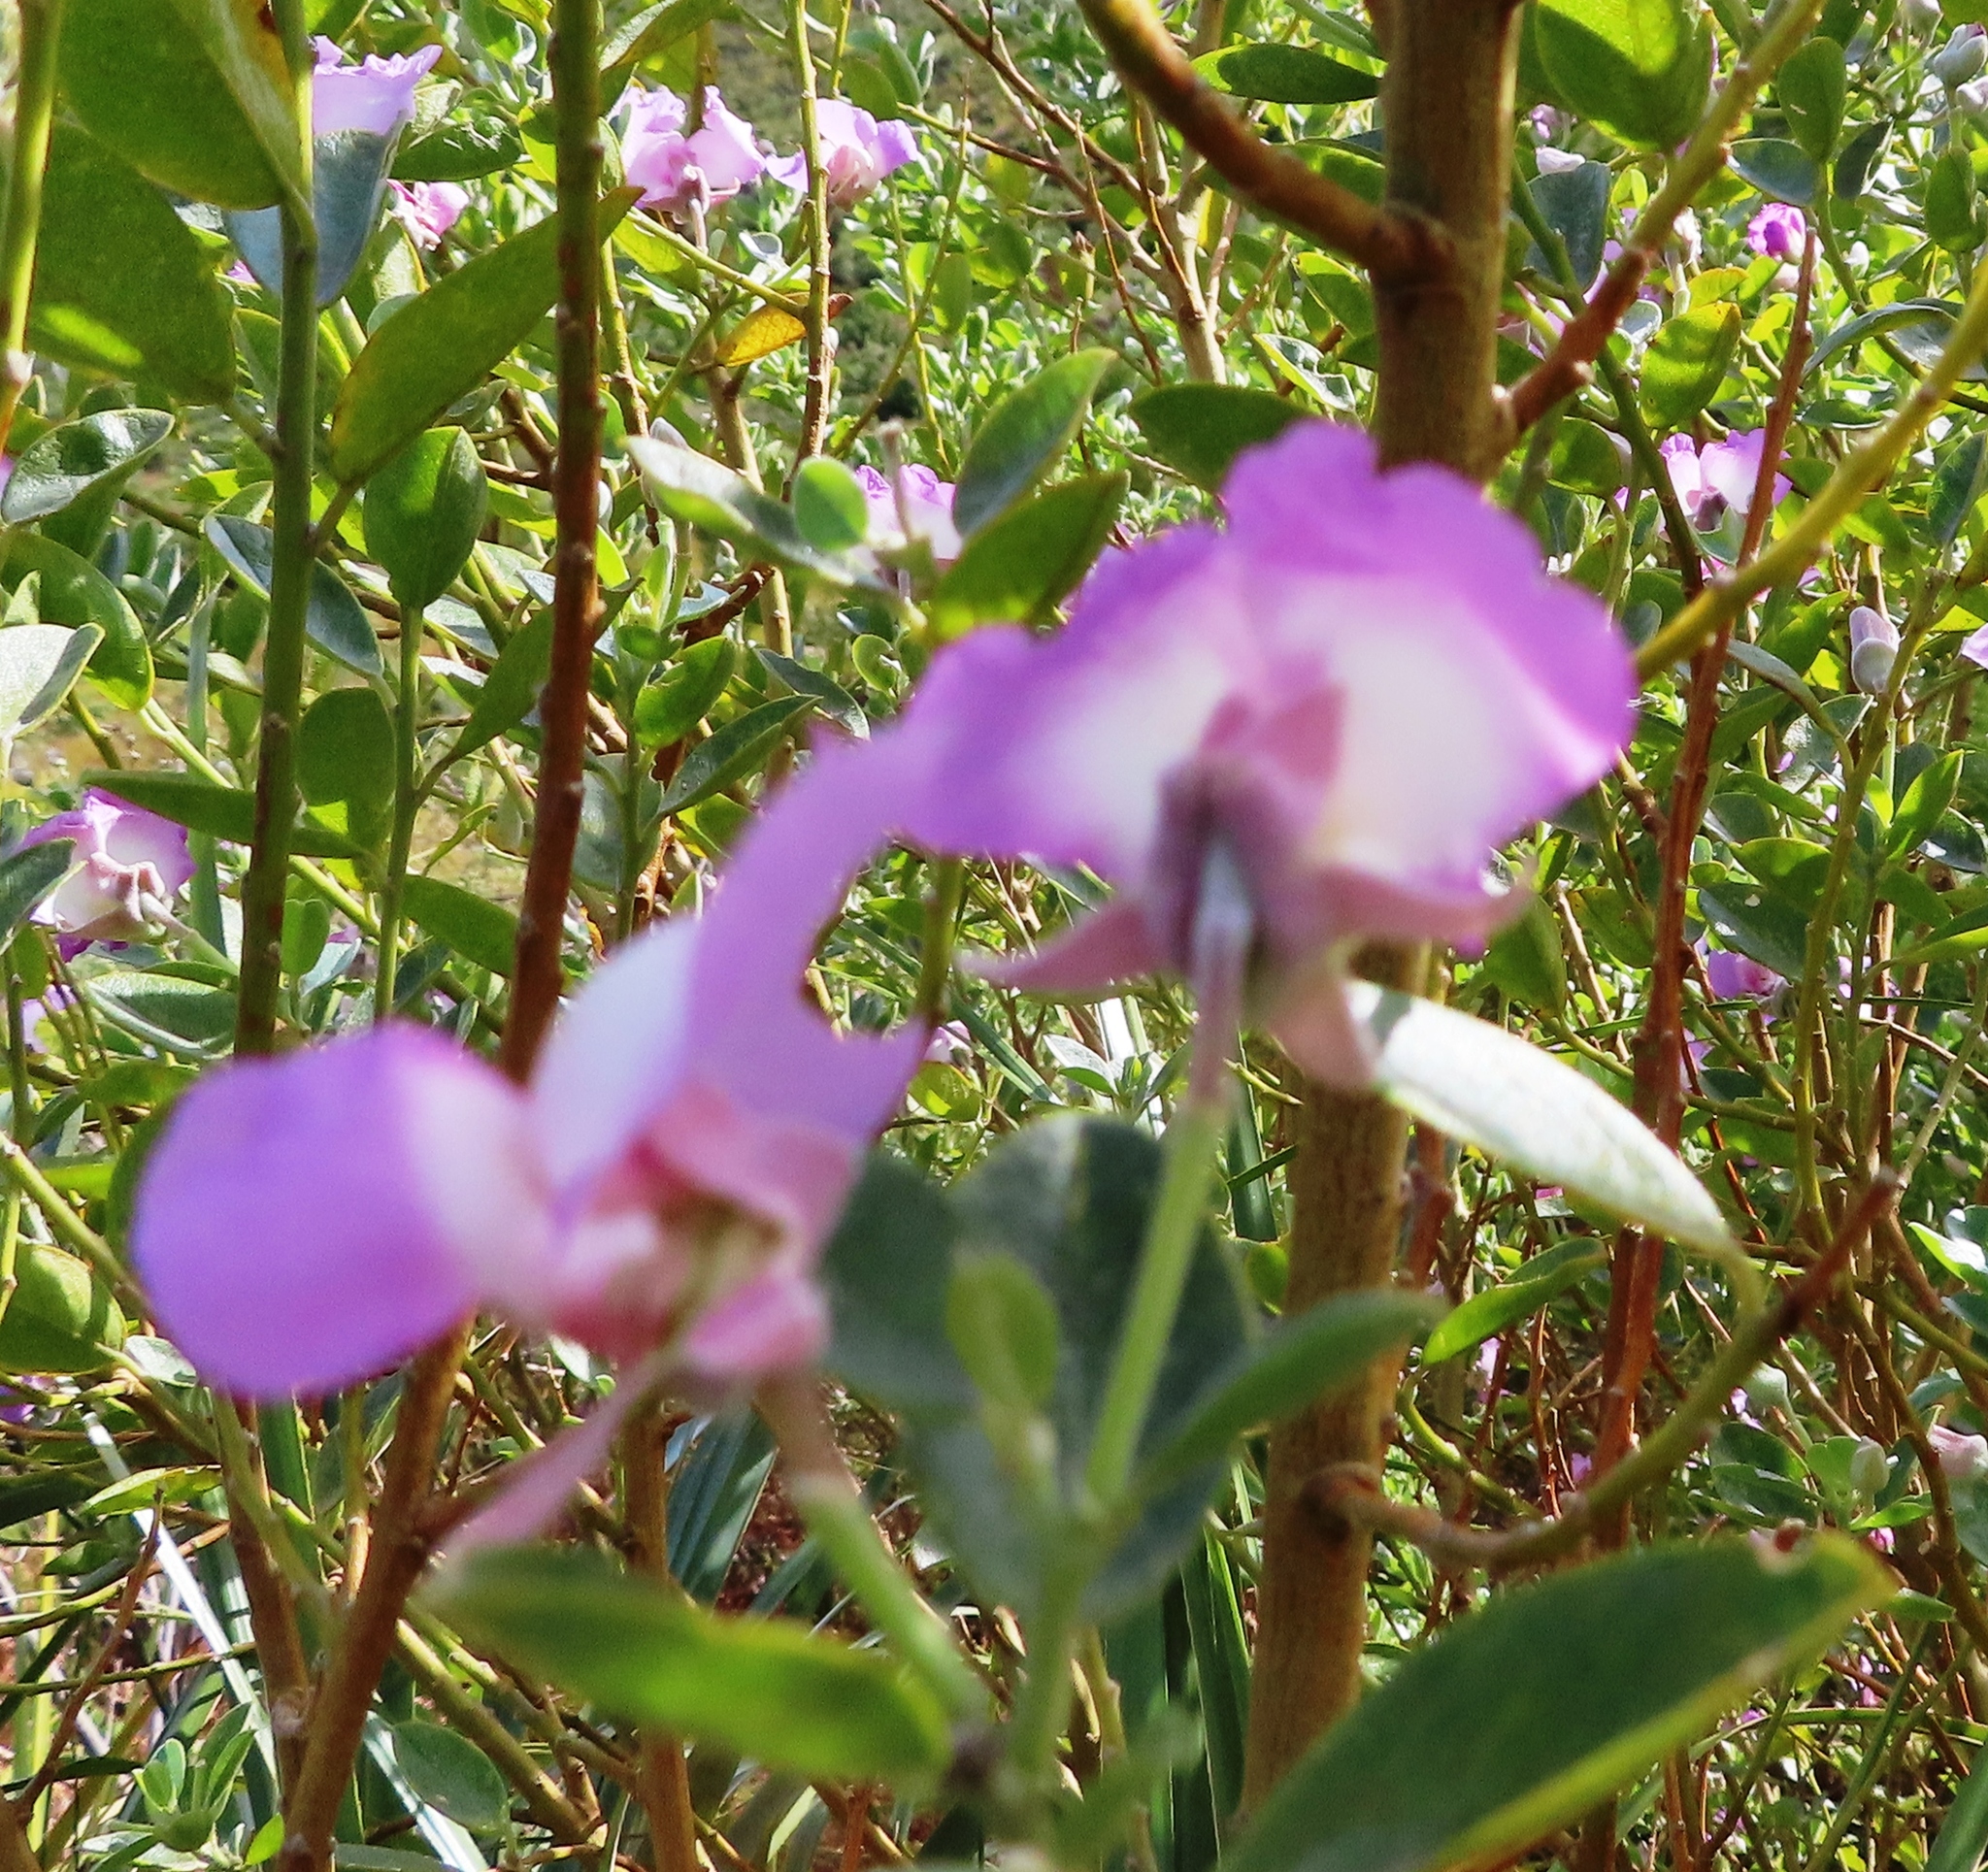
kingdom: Plantae
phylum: Tracheophyta
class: Magnoliopsida
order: Fabales
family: Fabaceae
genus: Podalyria
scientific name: Podalyria calyptrata
